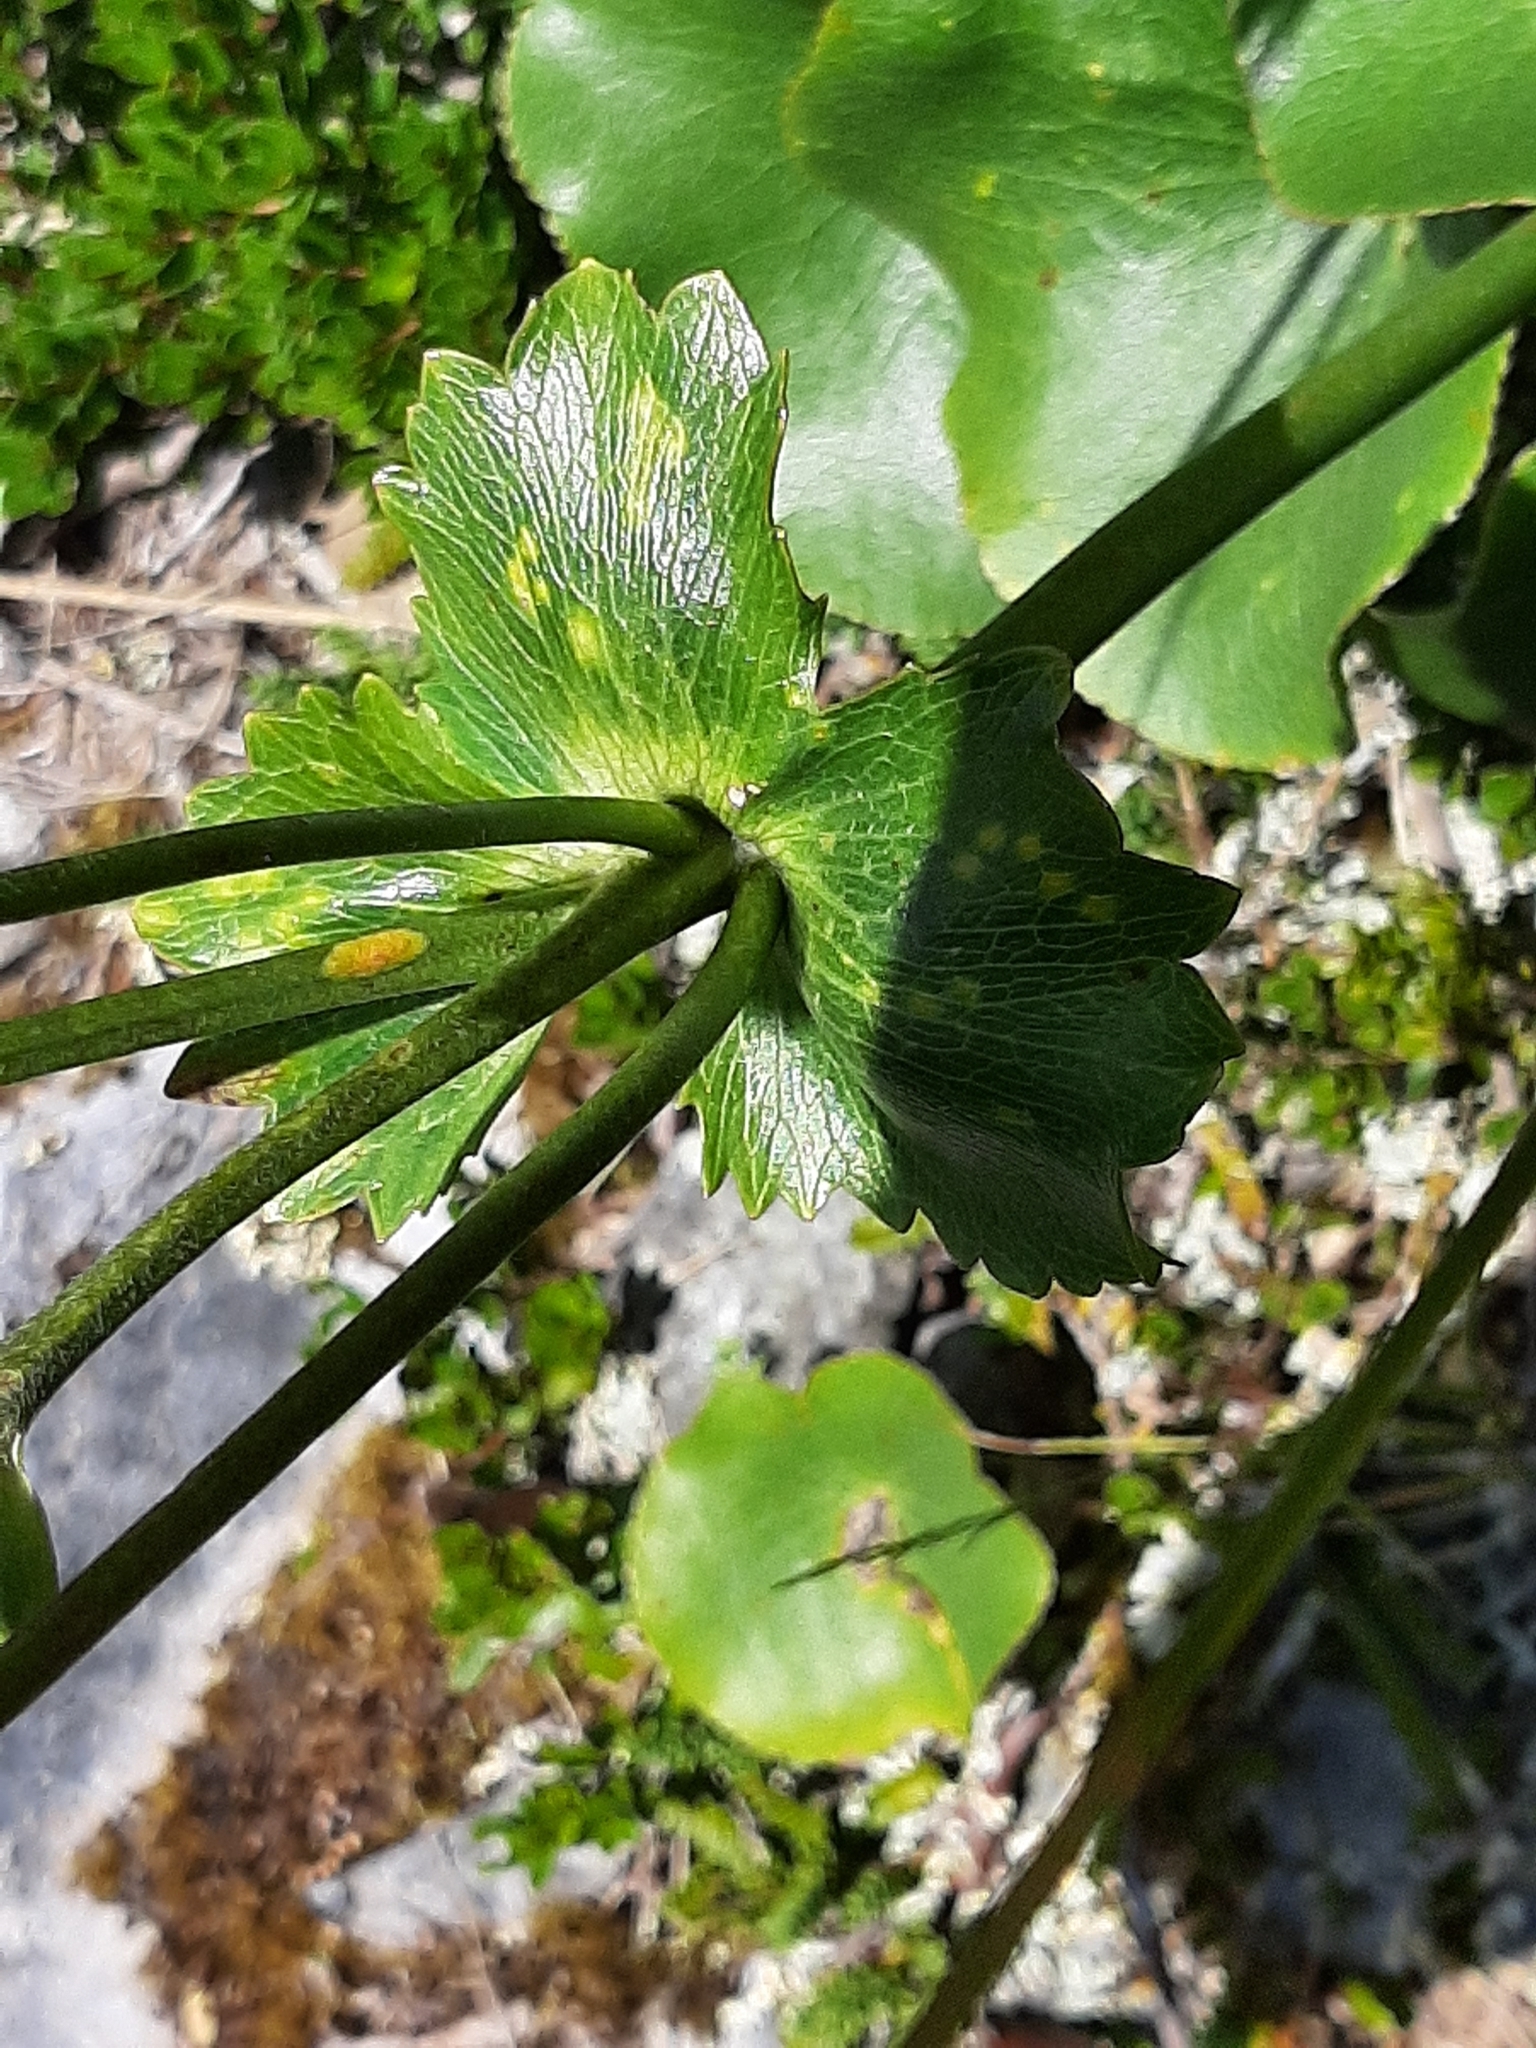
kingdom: Plantae
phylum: Tracheophyta
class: Magnoliopsida
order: Ranunculales
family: Ranunculaceae
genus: Ranunculus
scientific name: Ranunculus lyallii
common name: Mountain-lily
